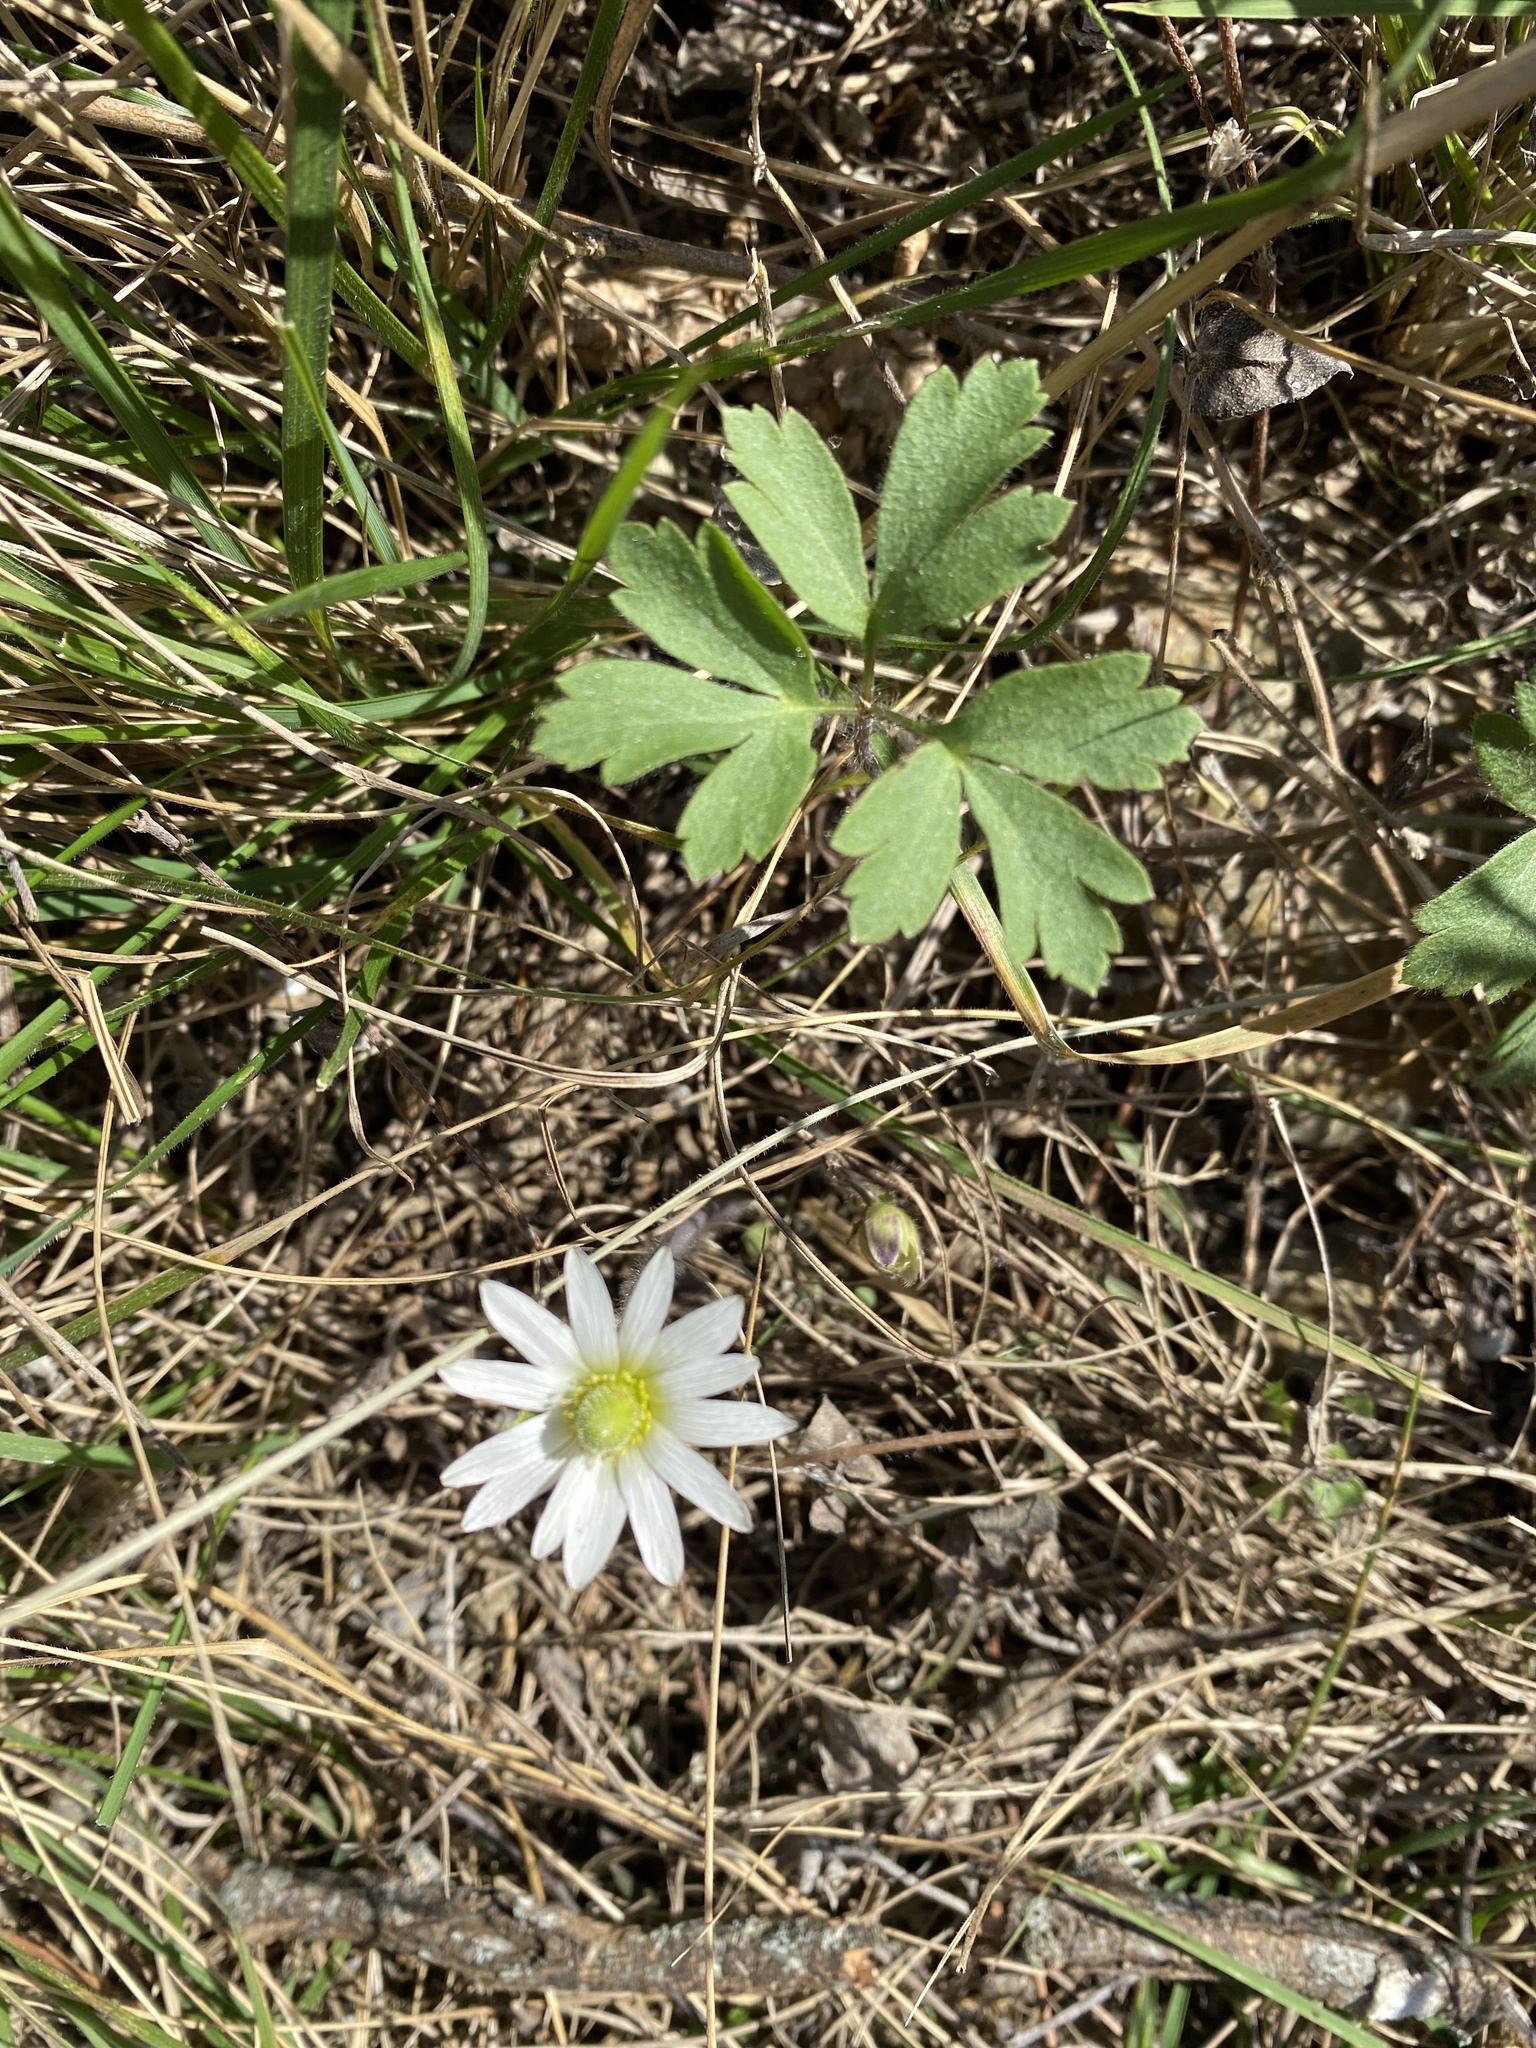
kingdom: Plantae
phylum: Tracheophyta
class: Magnoliopsida
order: Ranunculales
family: Ranunculaceae
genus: Anemone
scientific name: Anemone berlandieri
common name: Ten-petal anemone
